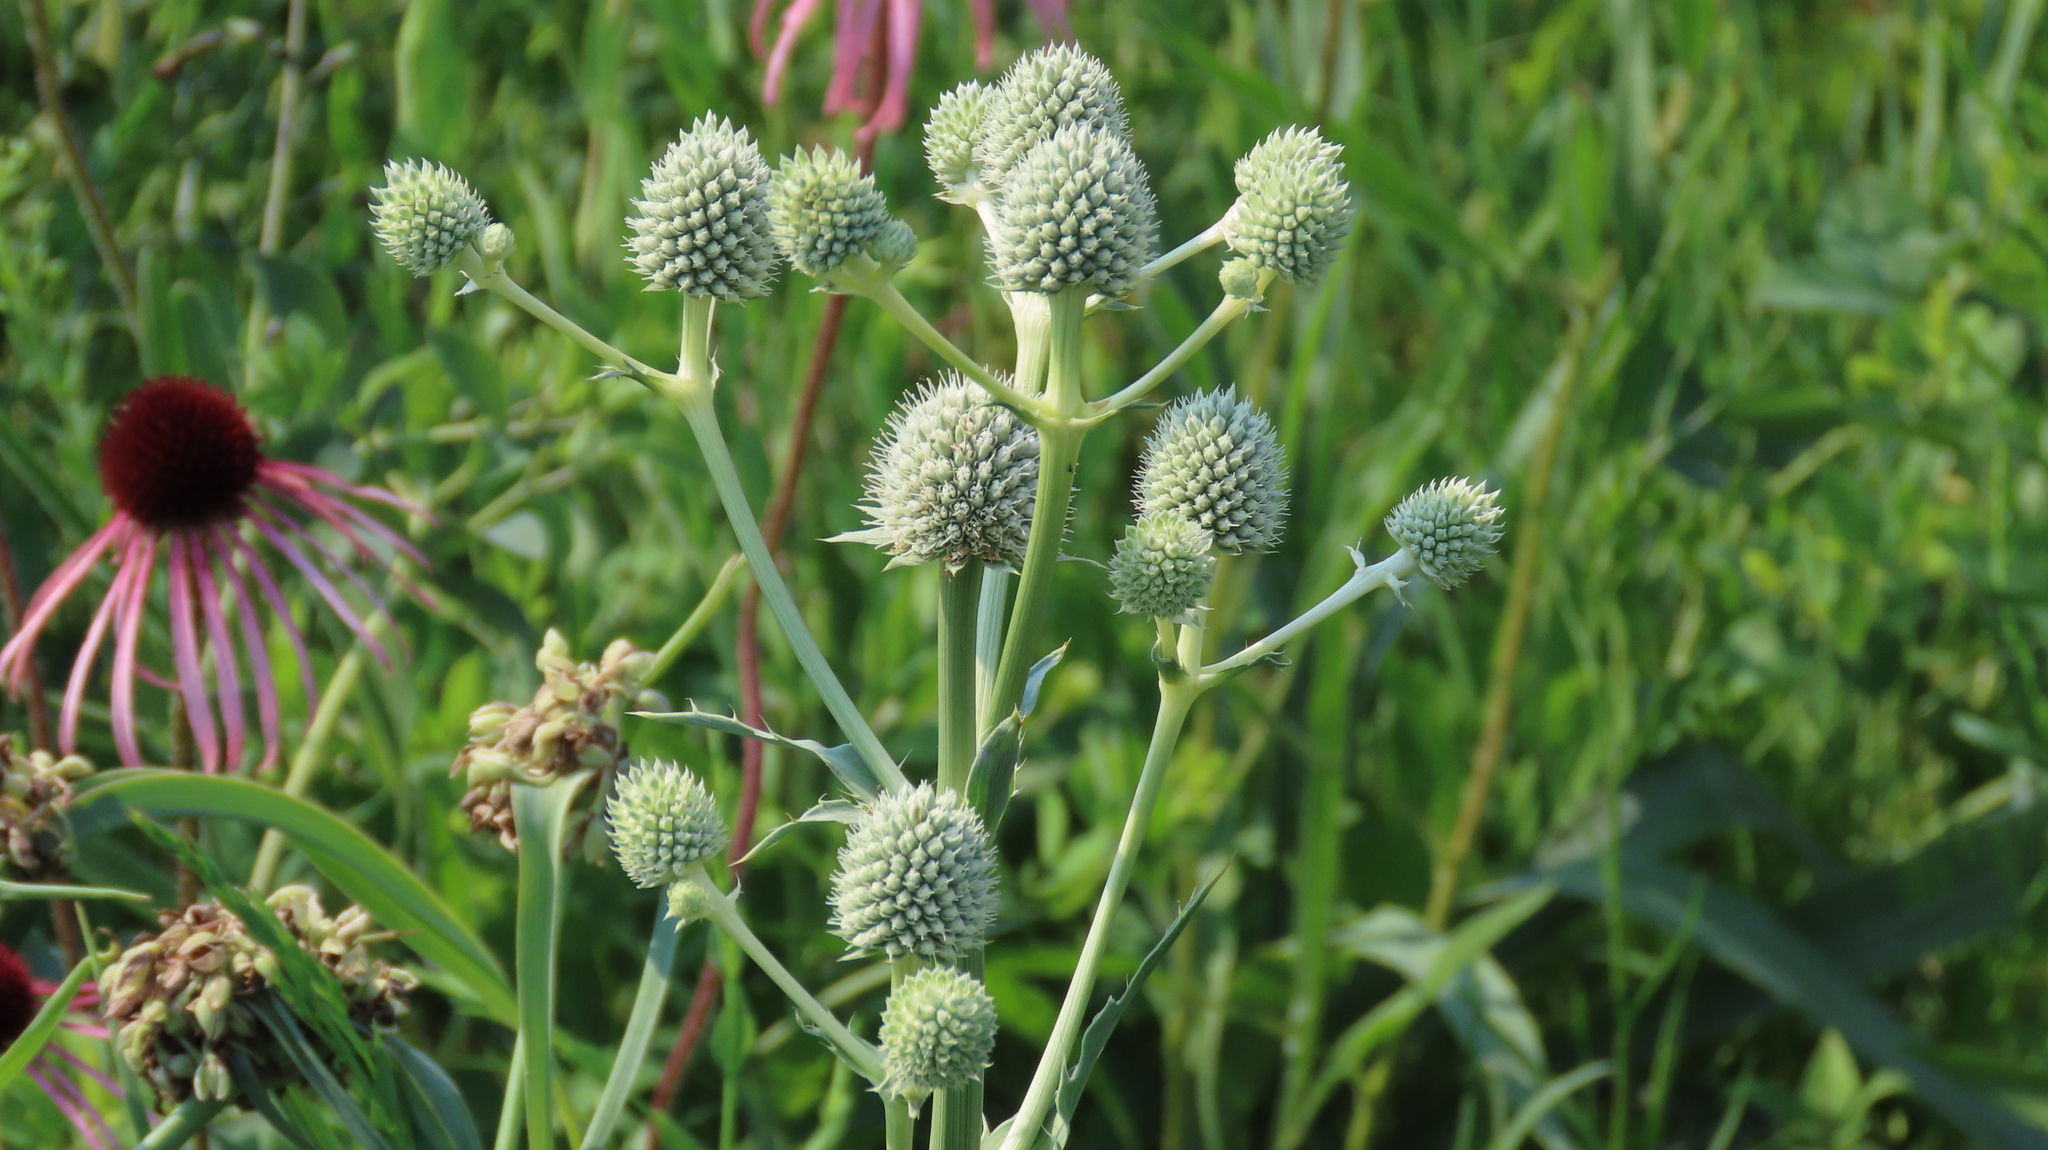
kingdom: Plantae
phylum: Tracheophyta
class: Magnoliopsida
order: Apiales
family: Apiaceae
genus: Eryngium
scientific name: Eryngium yuccifolium
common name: Button eryngo
